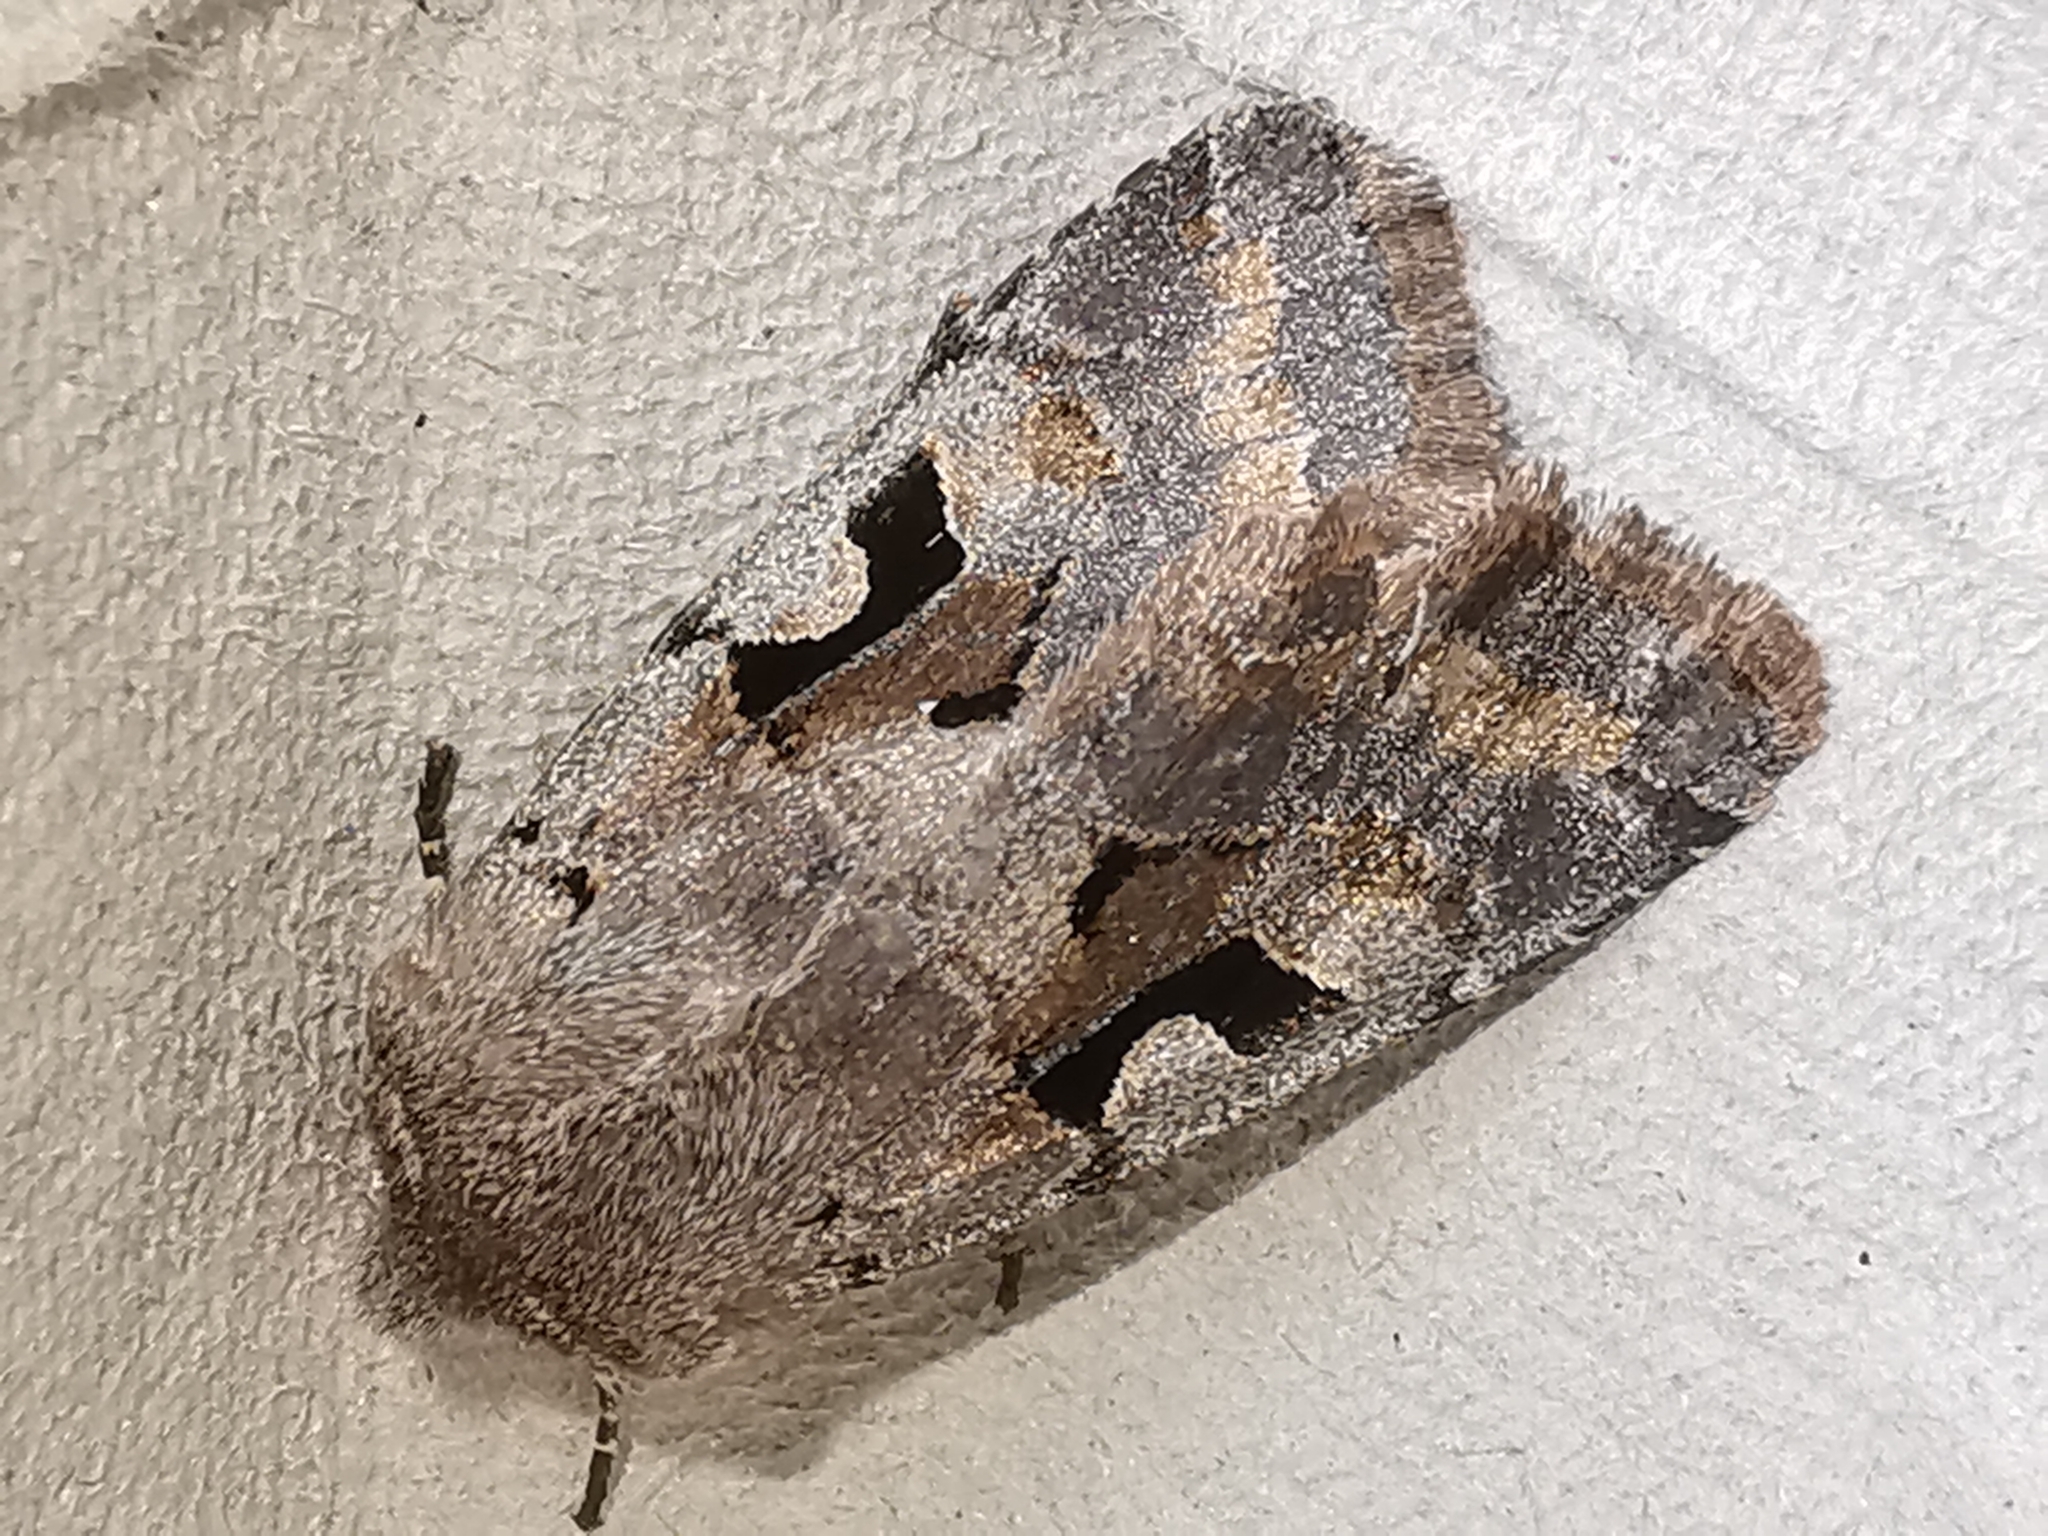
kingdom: Animalia
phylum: Arthropoda
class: Insecta
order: Lepidoptera
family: Noctuidae
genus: Orthosia
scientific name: Orthosia gothica
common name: Hebrew character
